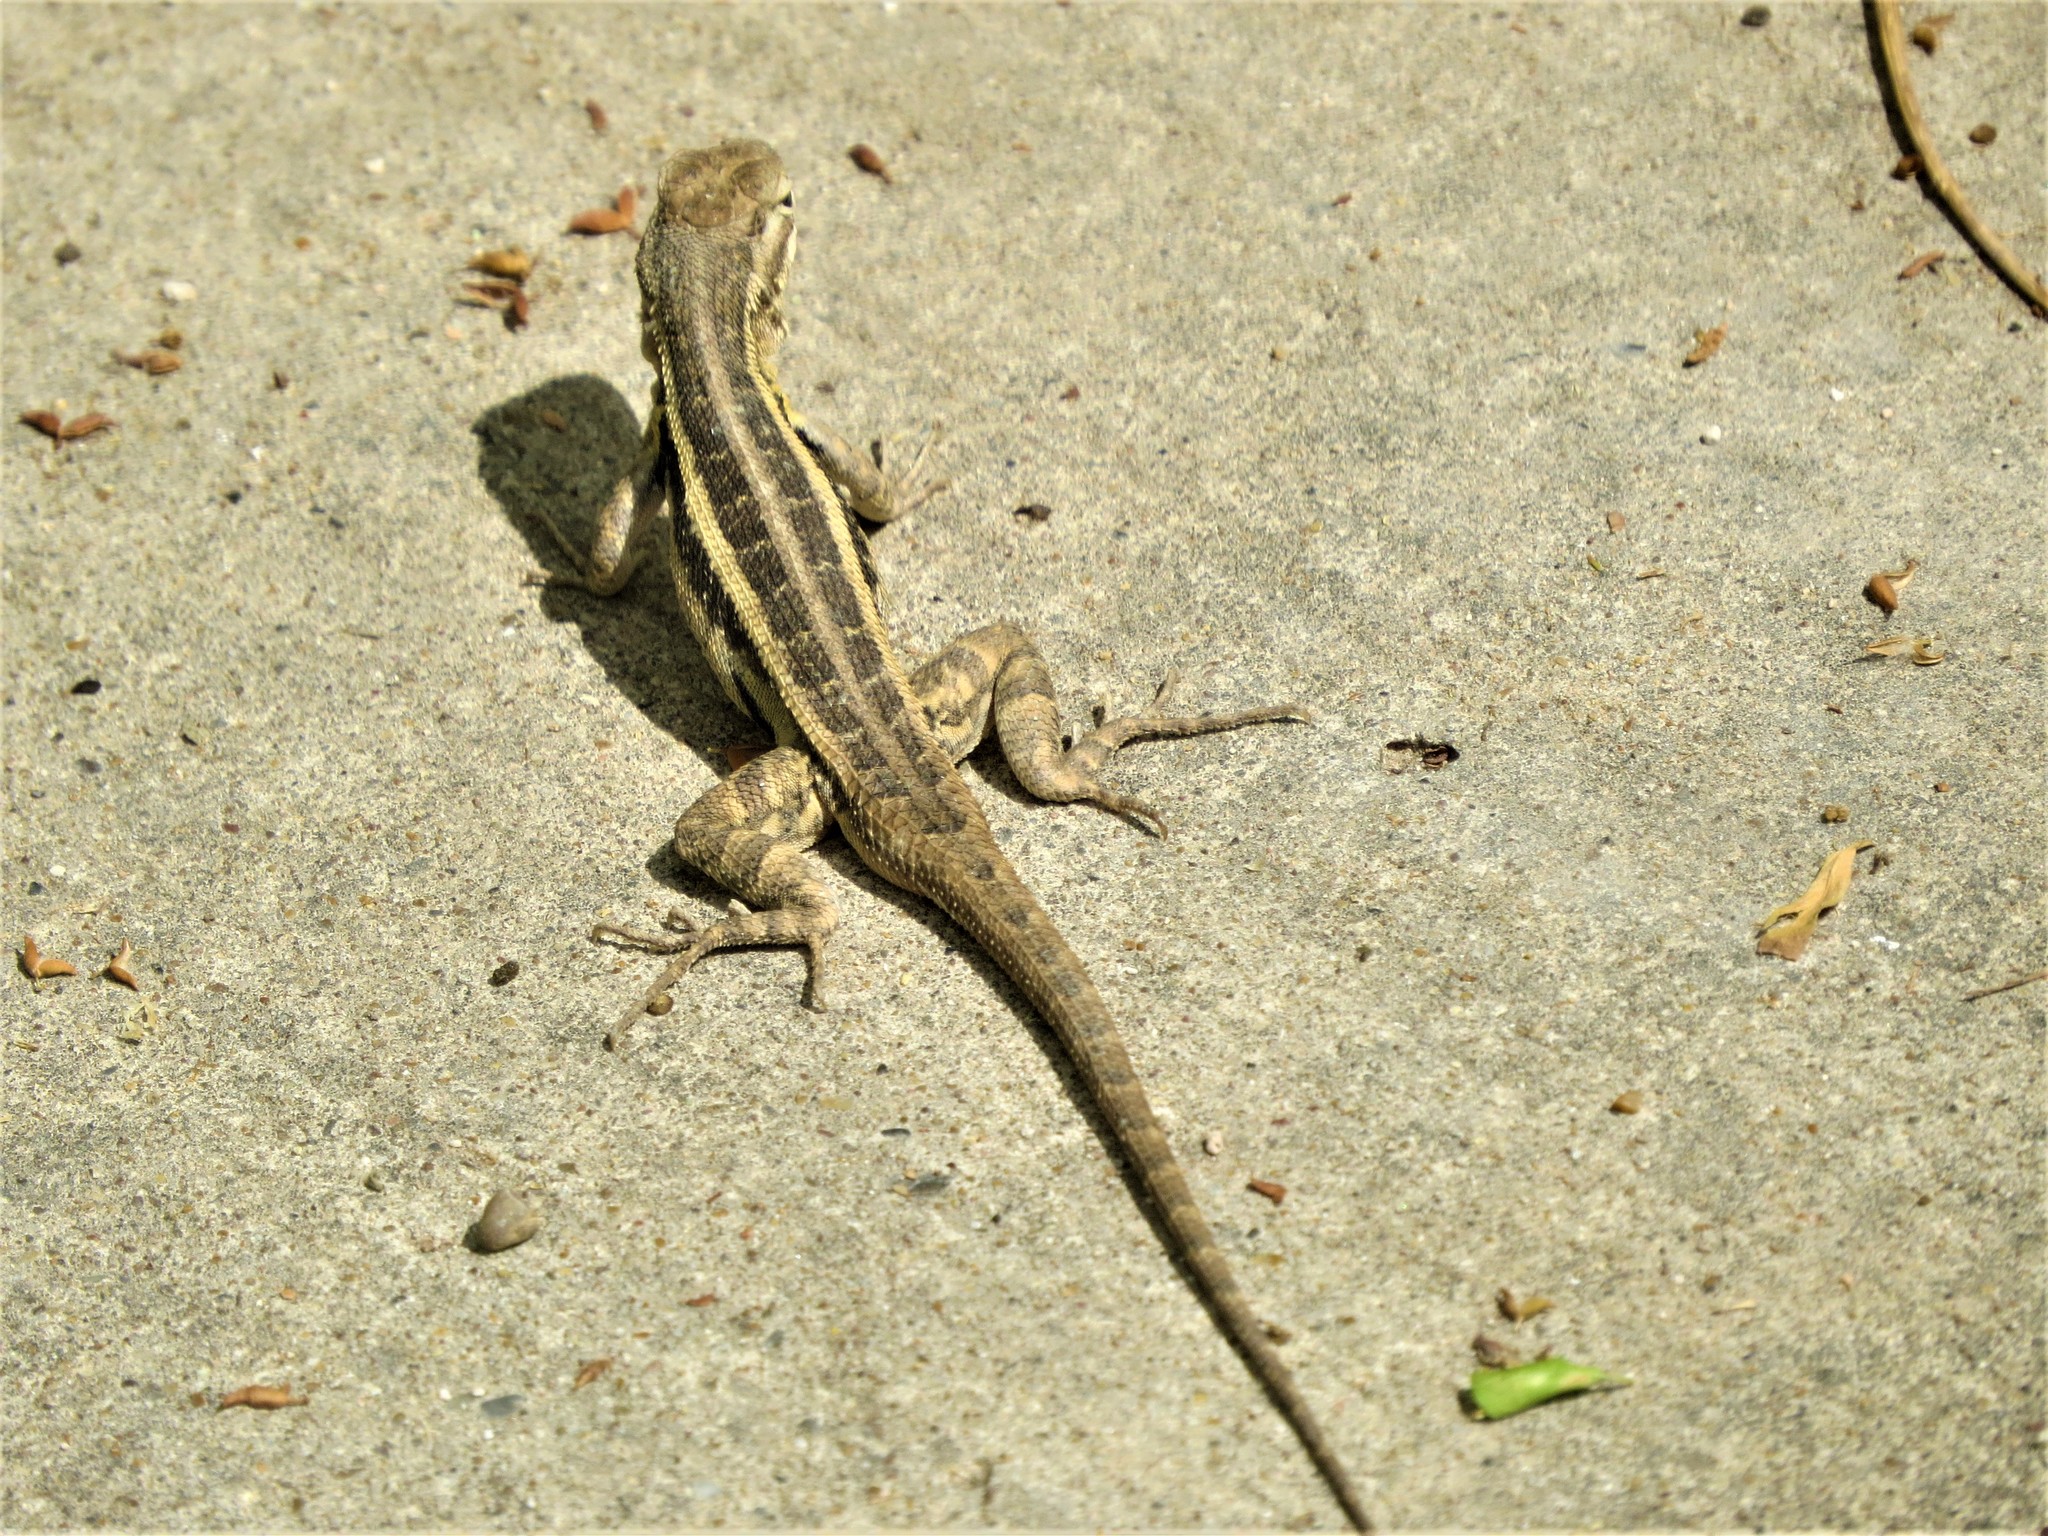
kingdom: Animalia
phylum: Chordata
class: Squamata
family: Phrynosomatidae
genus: Sceloporus
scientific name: Sceloporus variabilis
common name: Rosebelly lizard
